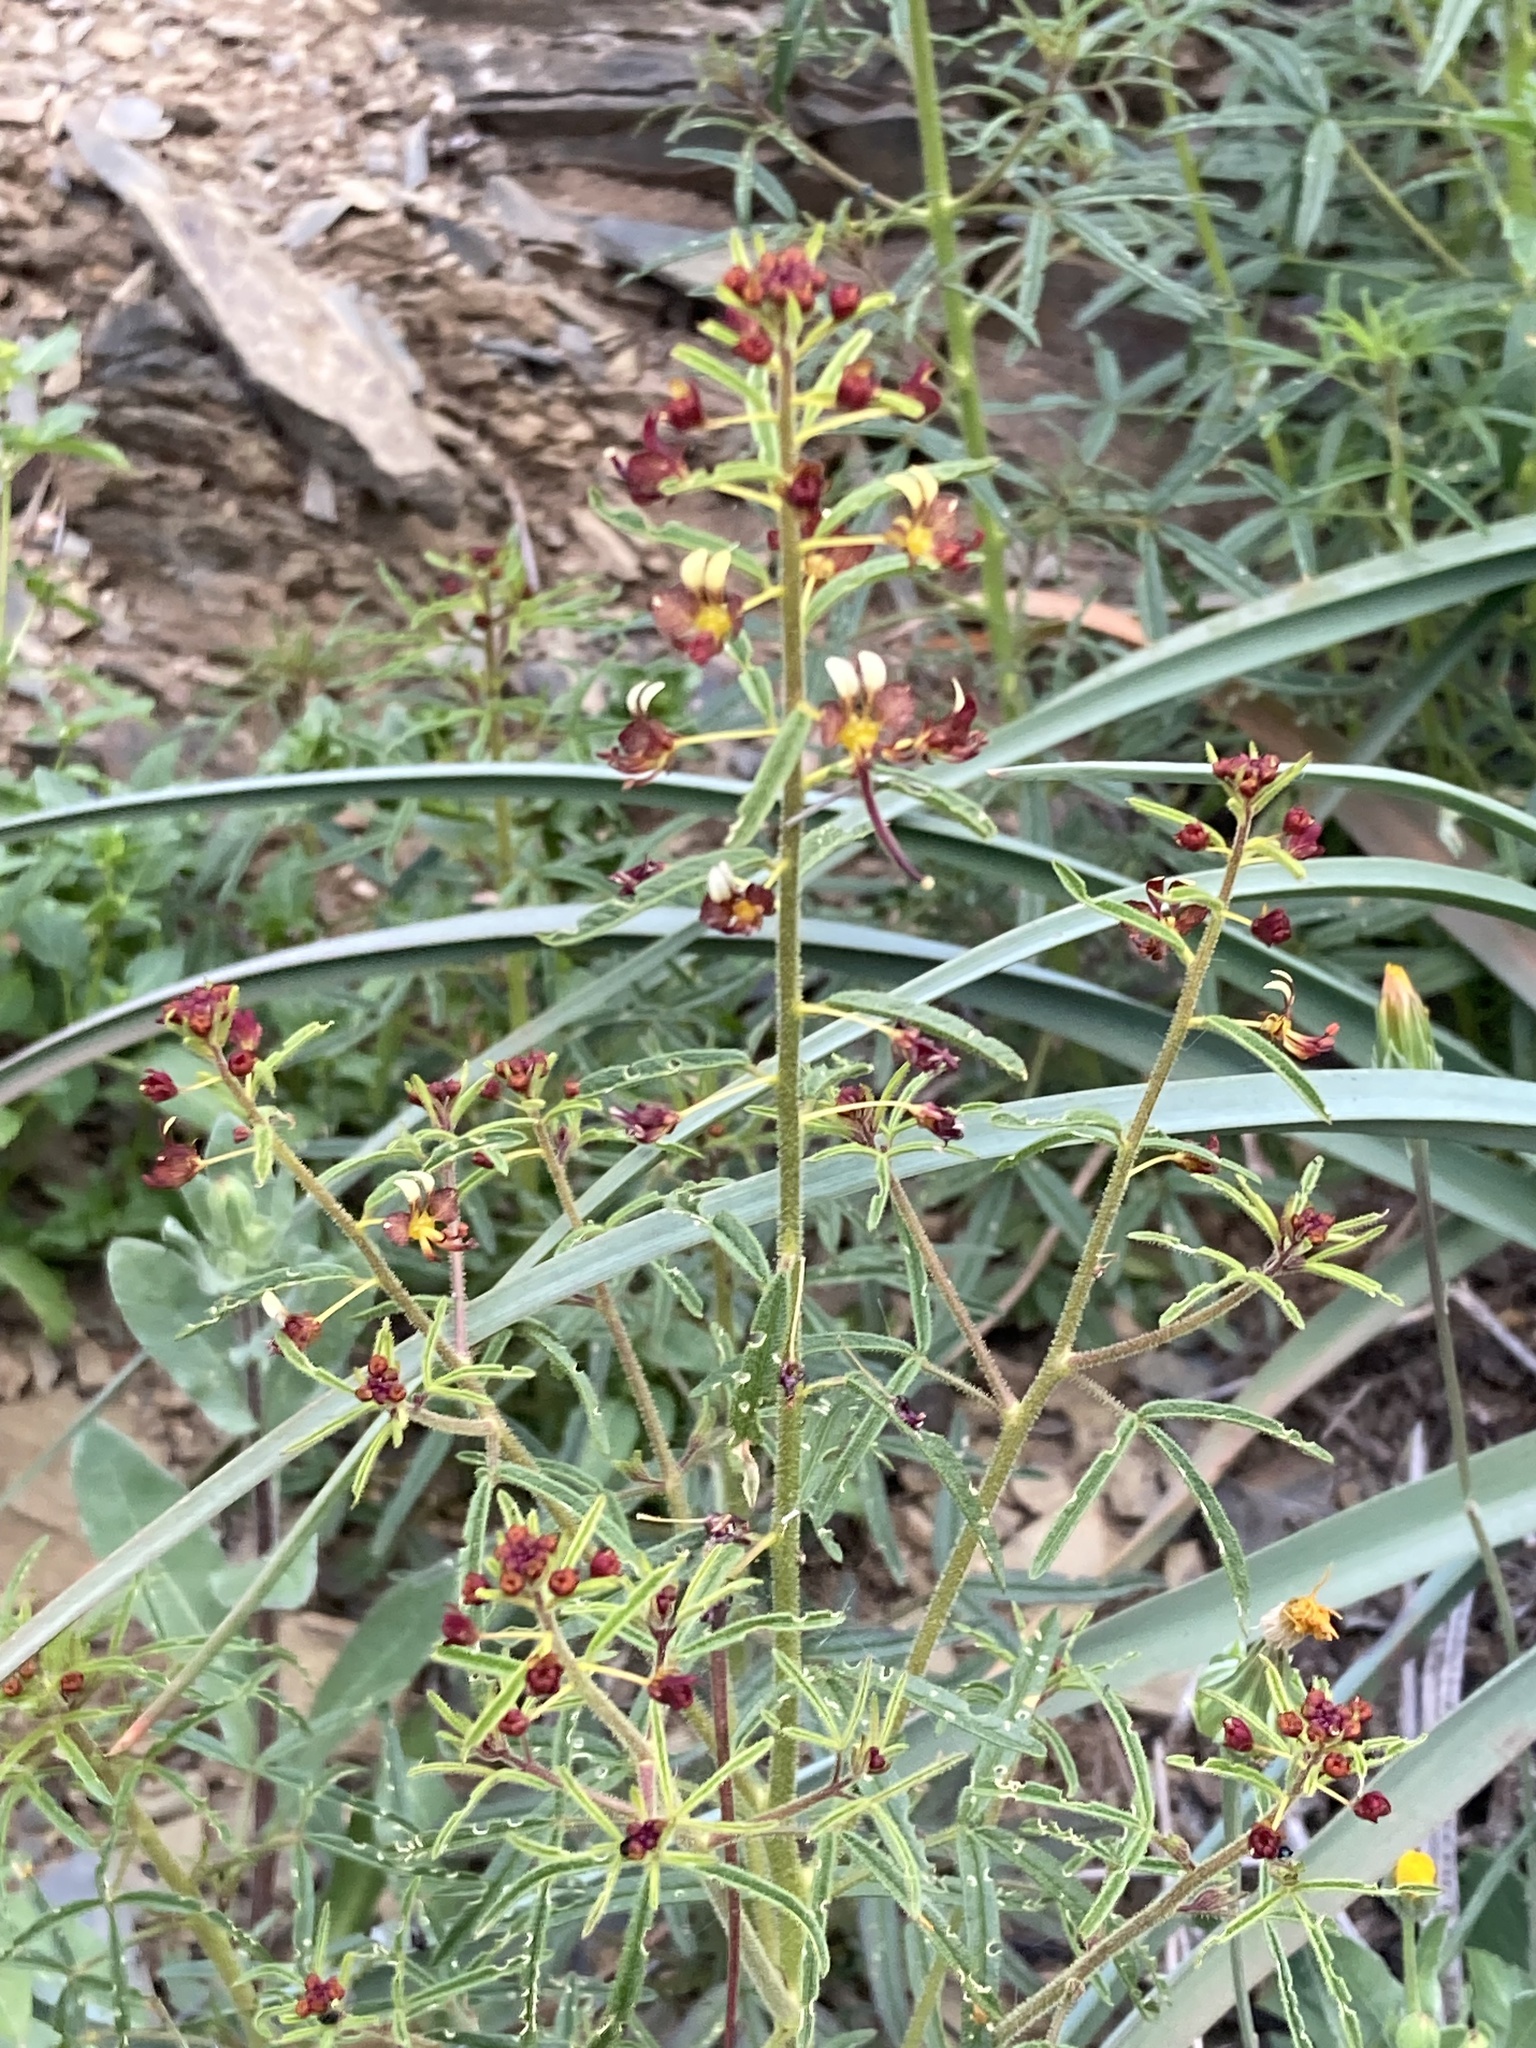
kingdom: Plantae
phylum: Tracheophyta
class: Magnoliopsida
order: Brassicales
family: Cleomaceae
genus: Cleome
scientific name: Cleome violacea
